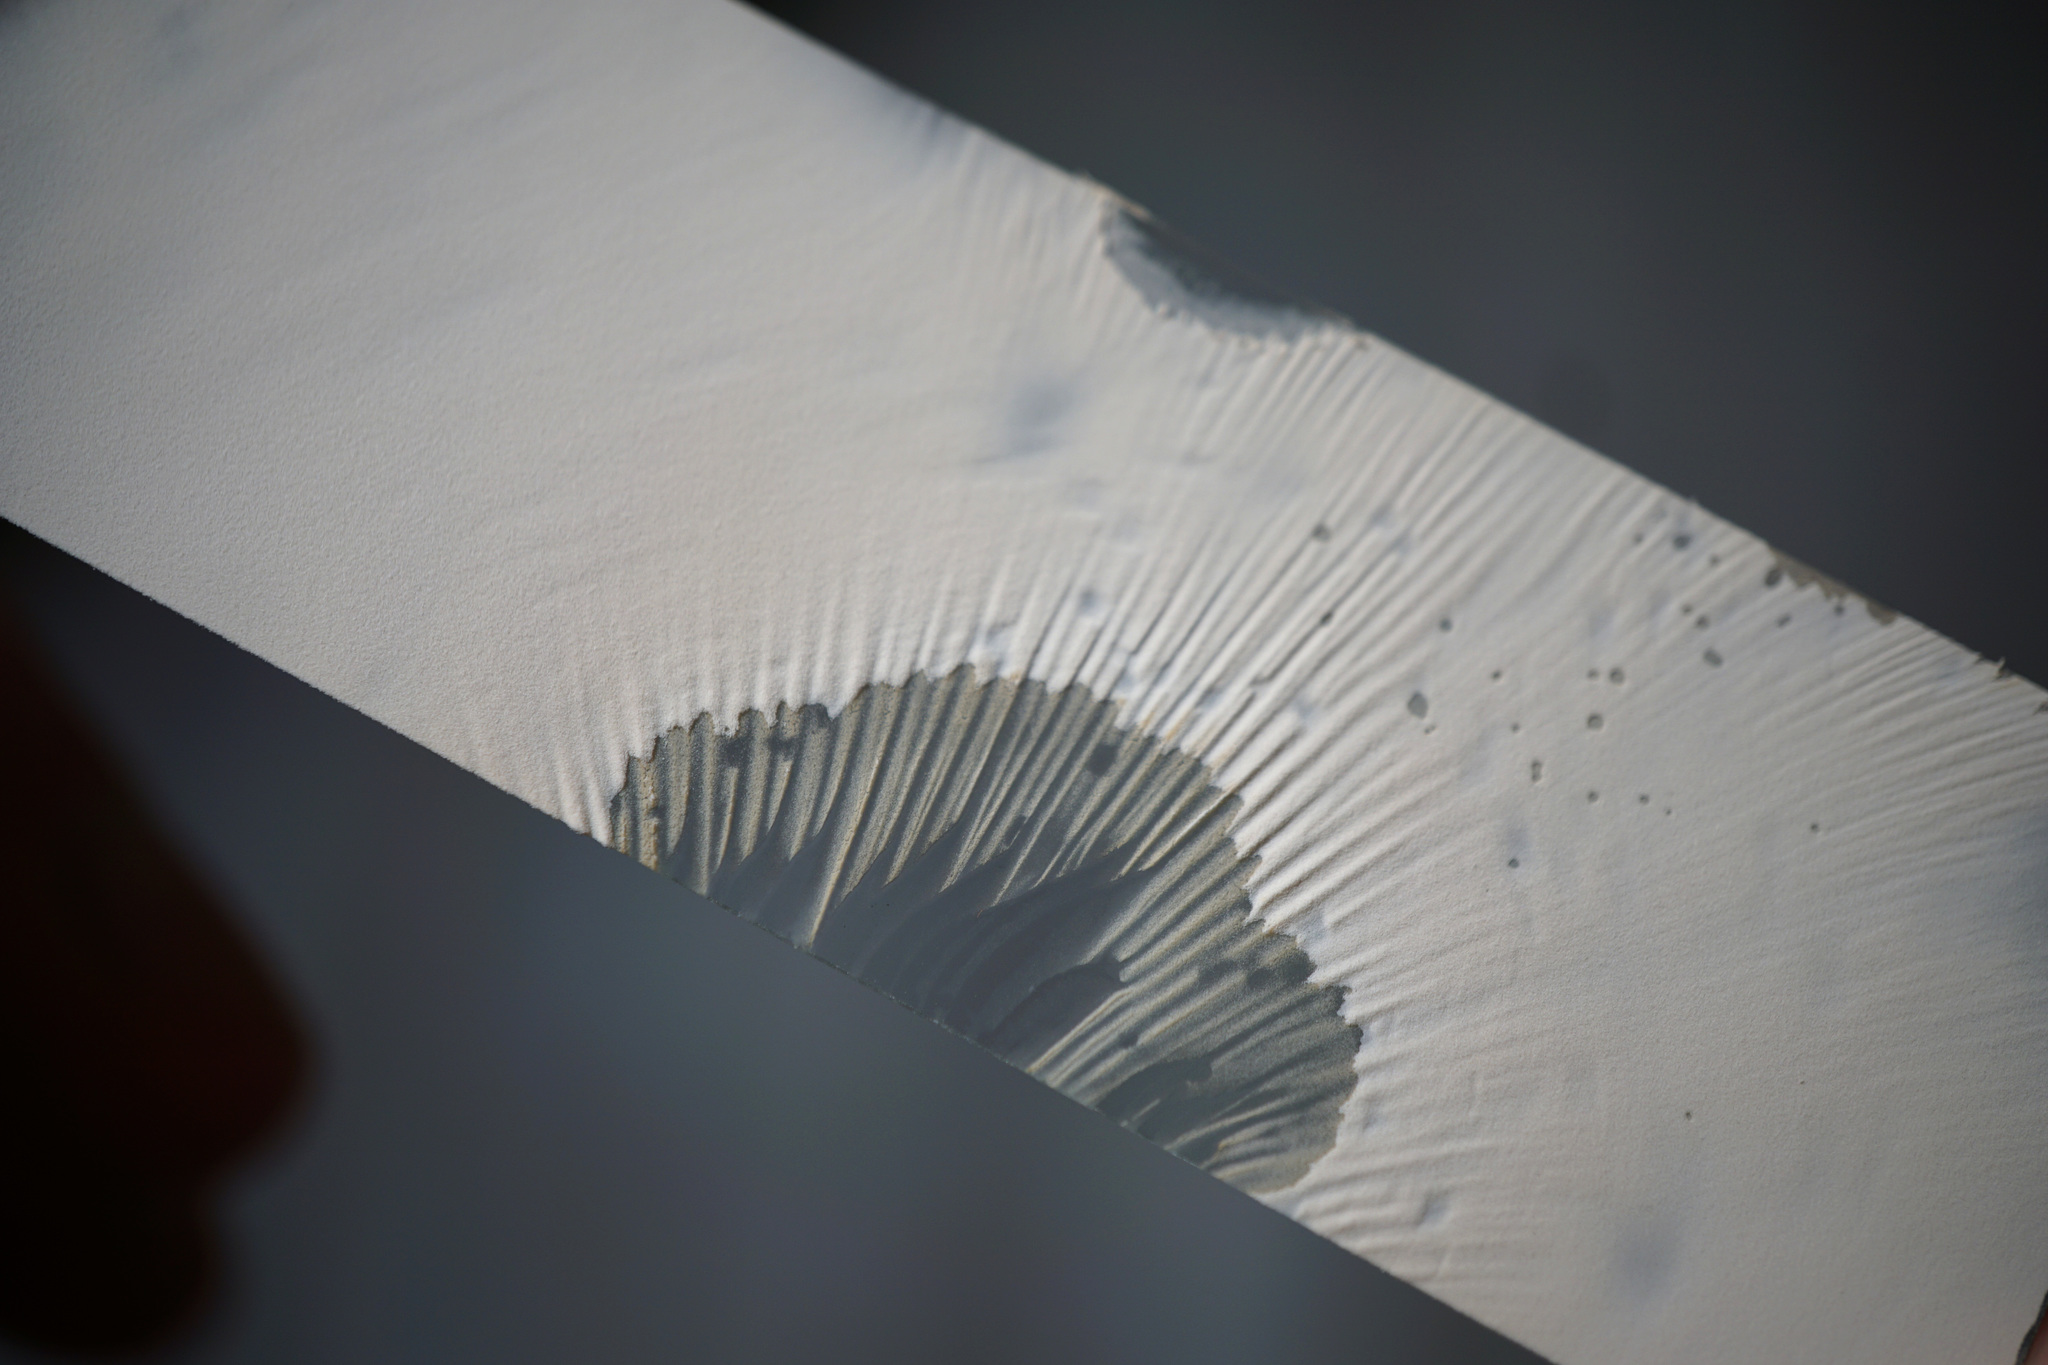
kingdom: Fungi
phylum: Basidiomycota
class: Agaricomycetes
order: Agaricales
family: Omphalotaceae
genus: Collybiopsis
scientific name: Collybiopsis peronata
